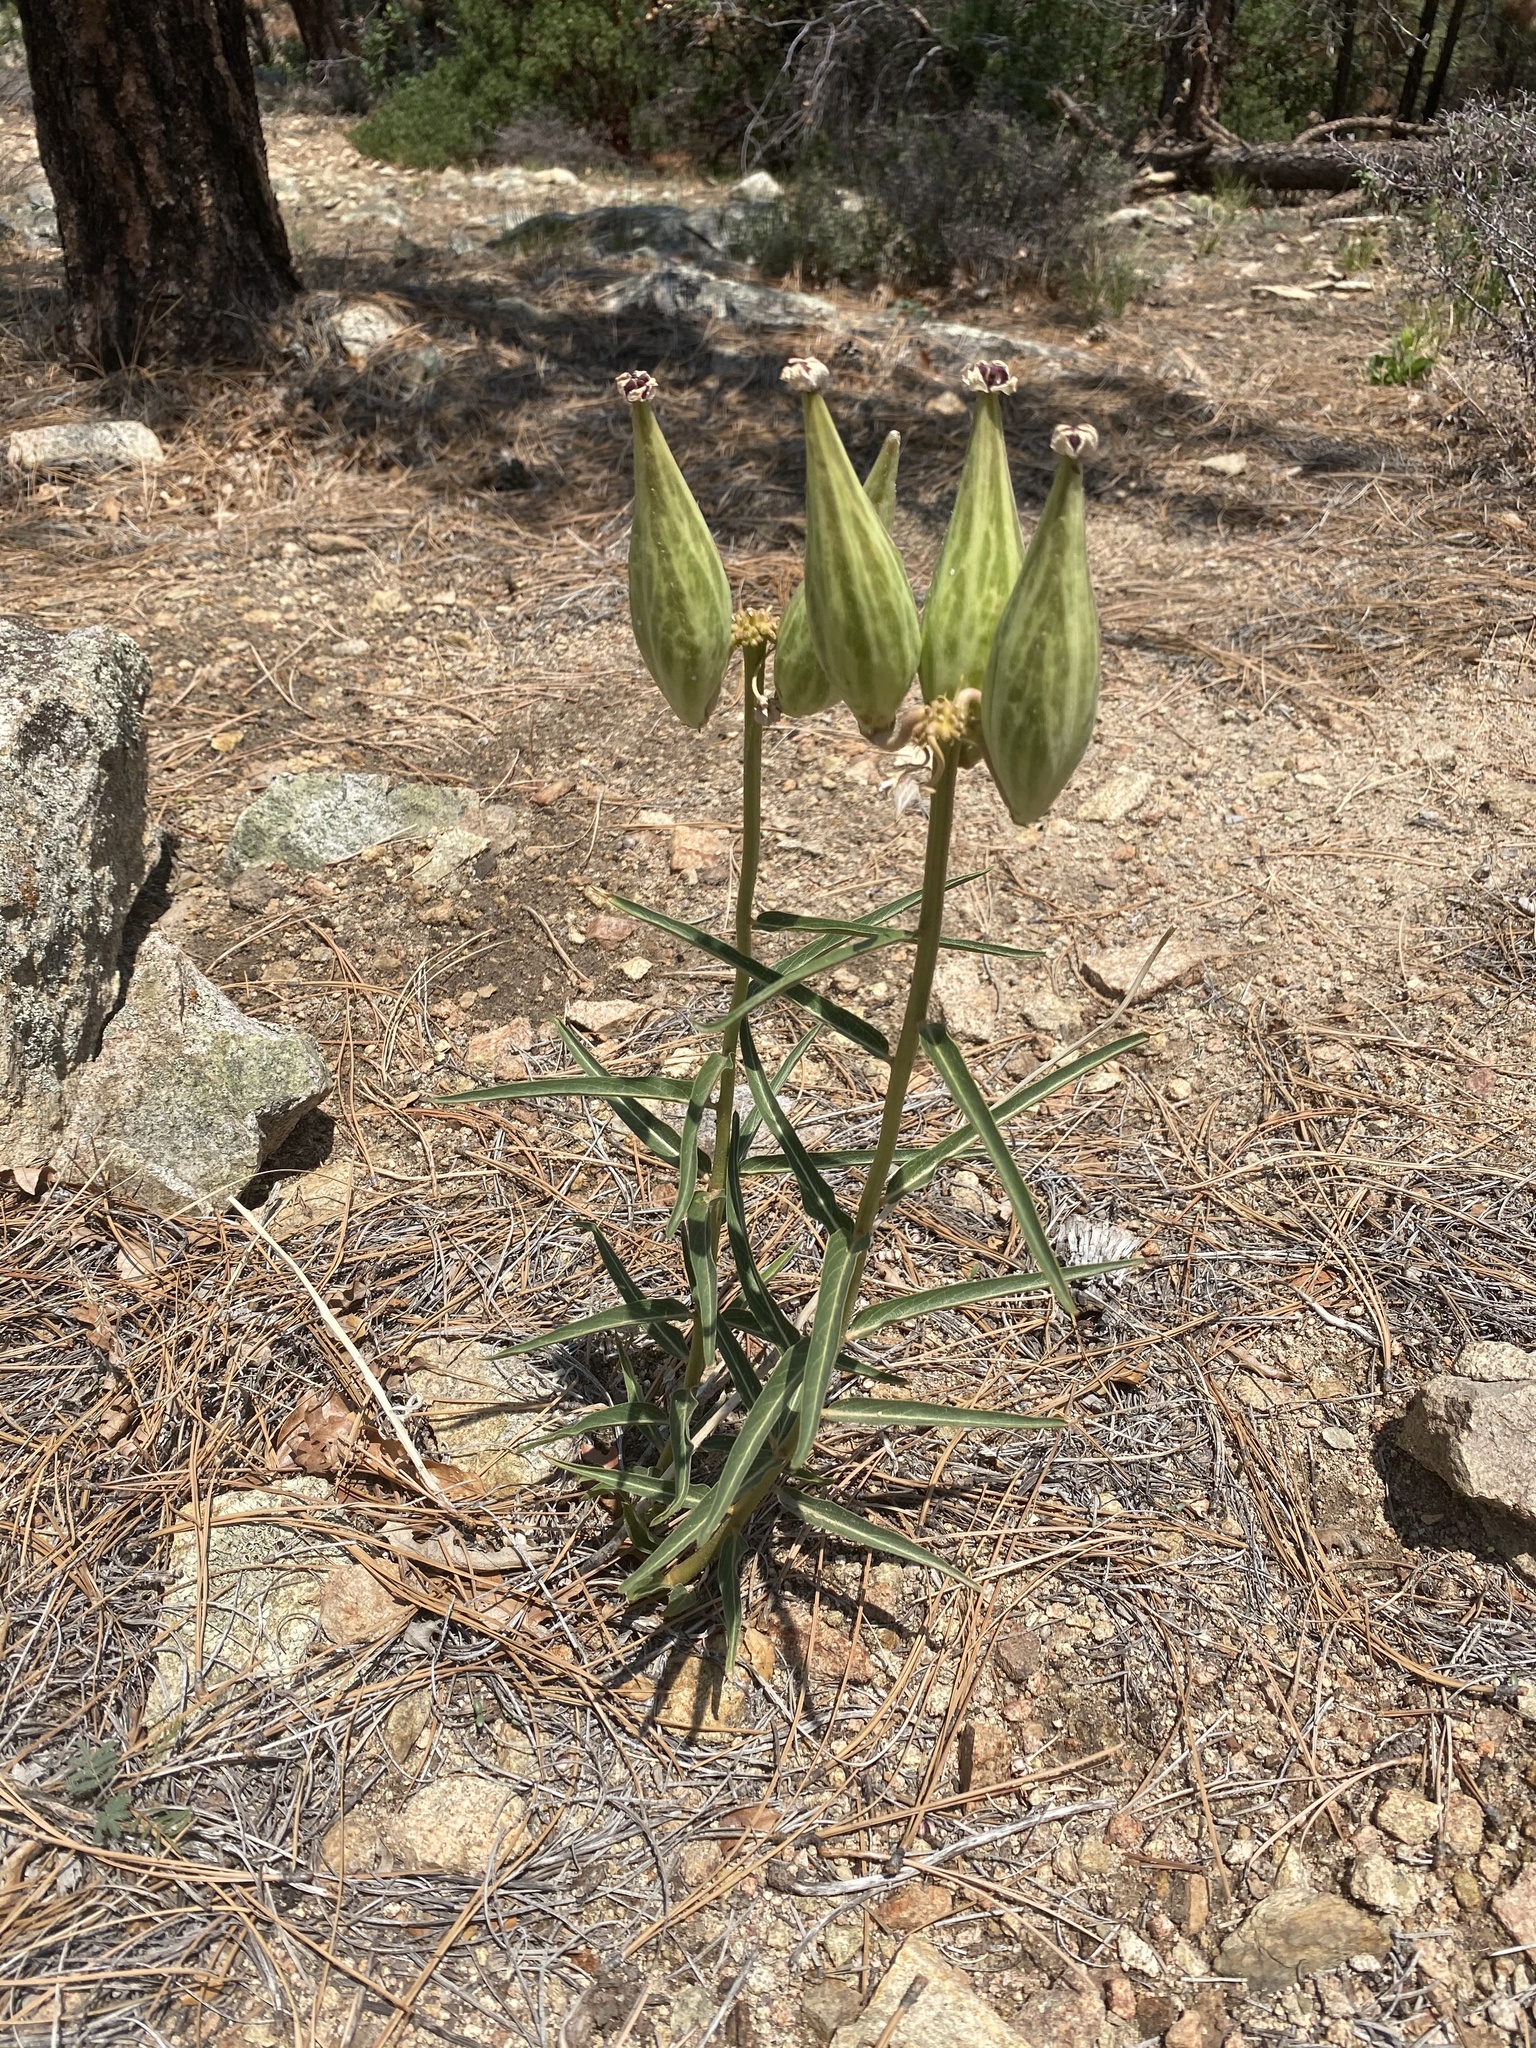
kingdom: Plantae
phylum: Tracheophyta
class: Magnoliopsida
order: Gentianales
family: Apocynaceae
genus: Asclepias
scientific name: Asclepias asperula
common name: Antelope horns
